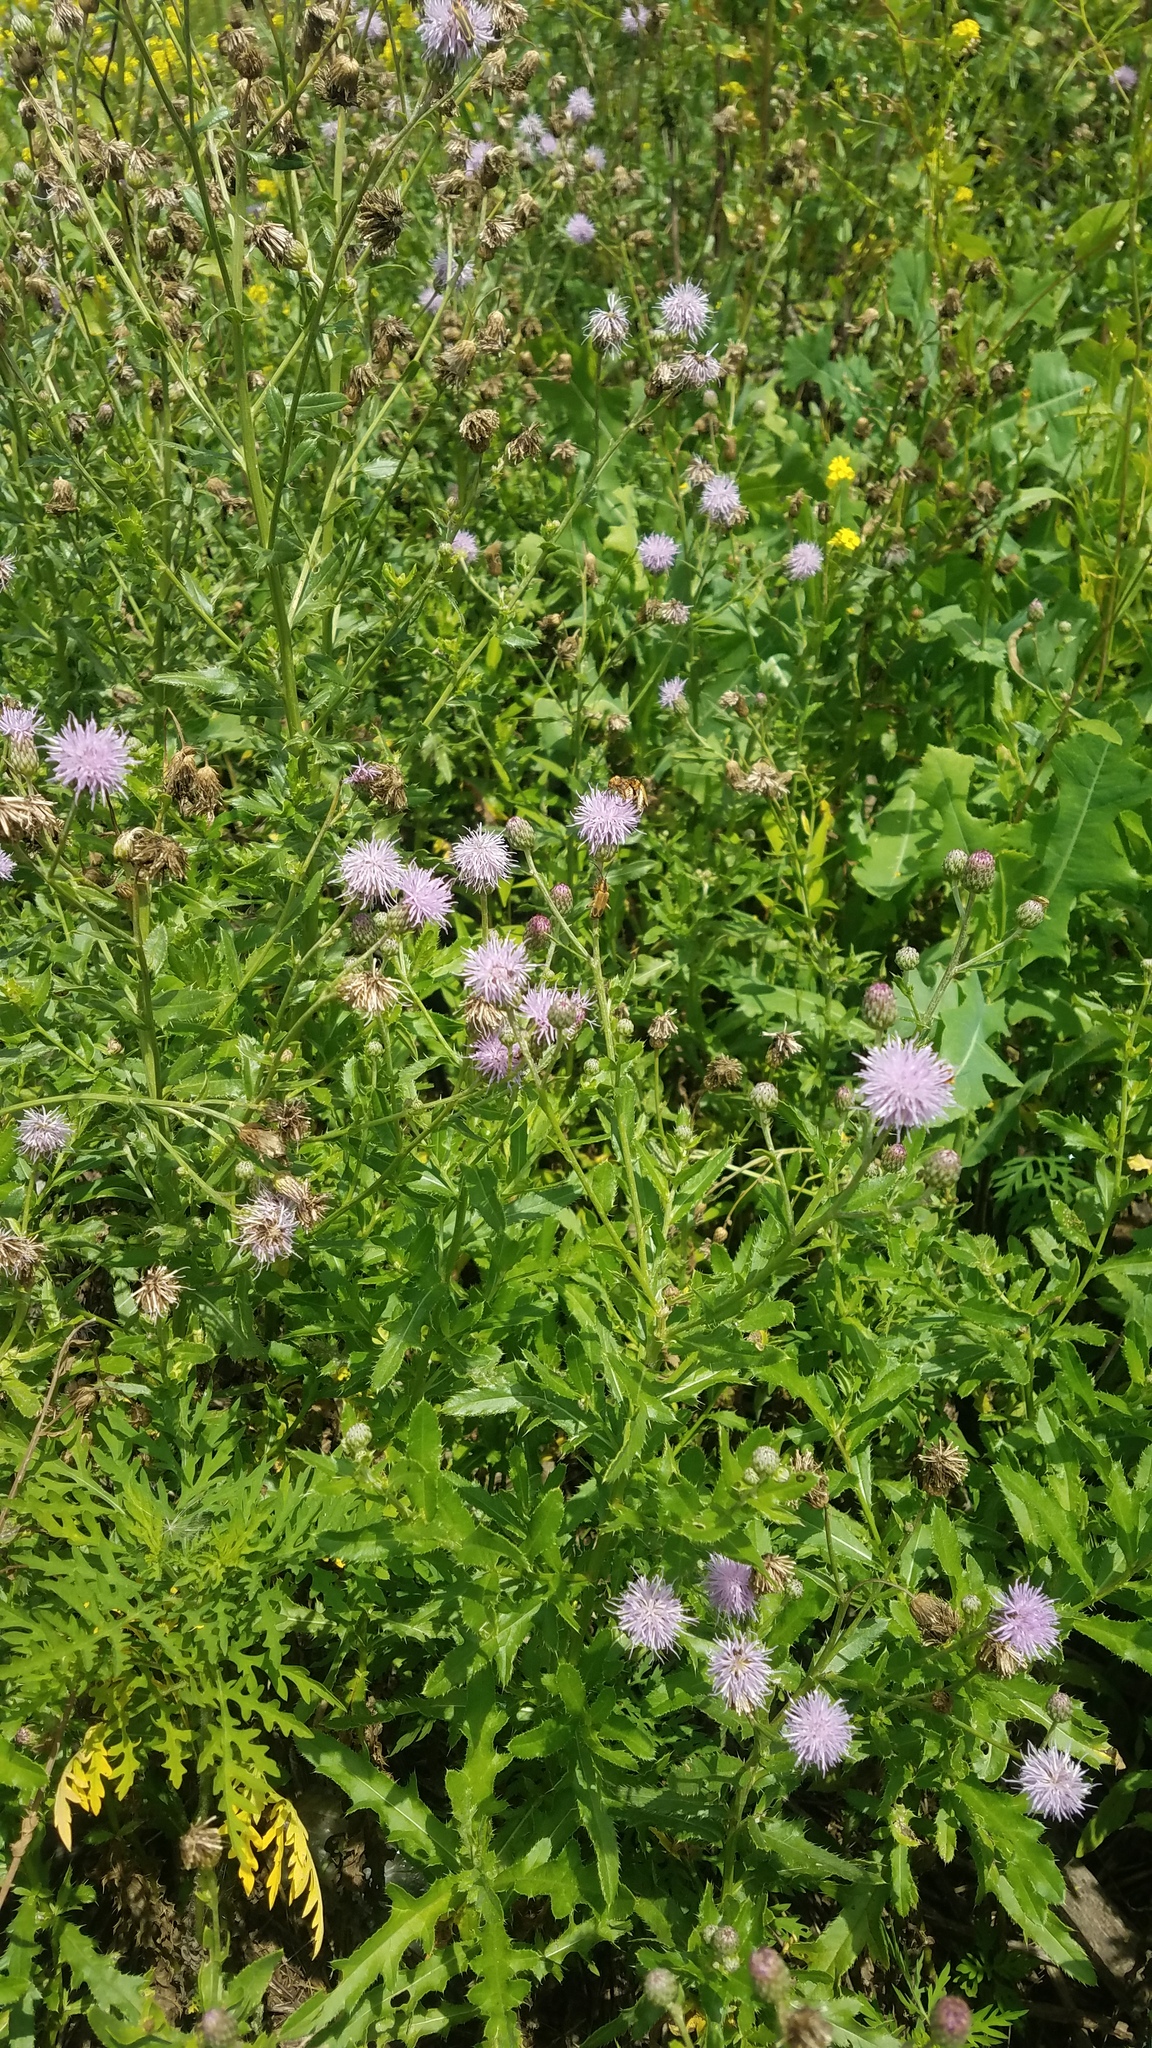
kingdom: Plantae
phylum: Tracheophyta
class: Magnoliopsida
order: Asterales
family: Asteraceae
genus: Cirsium
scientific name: Cirsium arvense
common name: Creeping thistle
